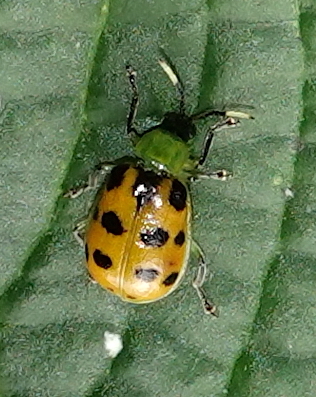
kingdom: Animalia
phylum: Arthropoda
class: Insecta
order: Coleoptera
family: Chrysomelidae
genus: Diabrotica
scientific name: Diabrotica limitata
